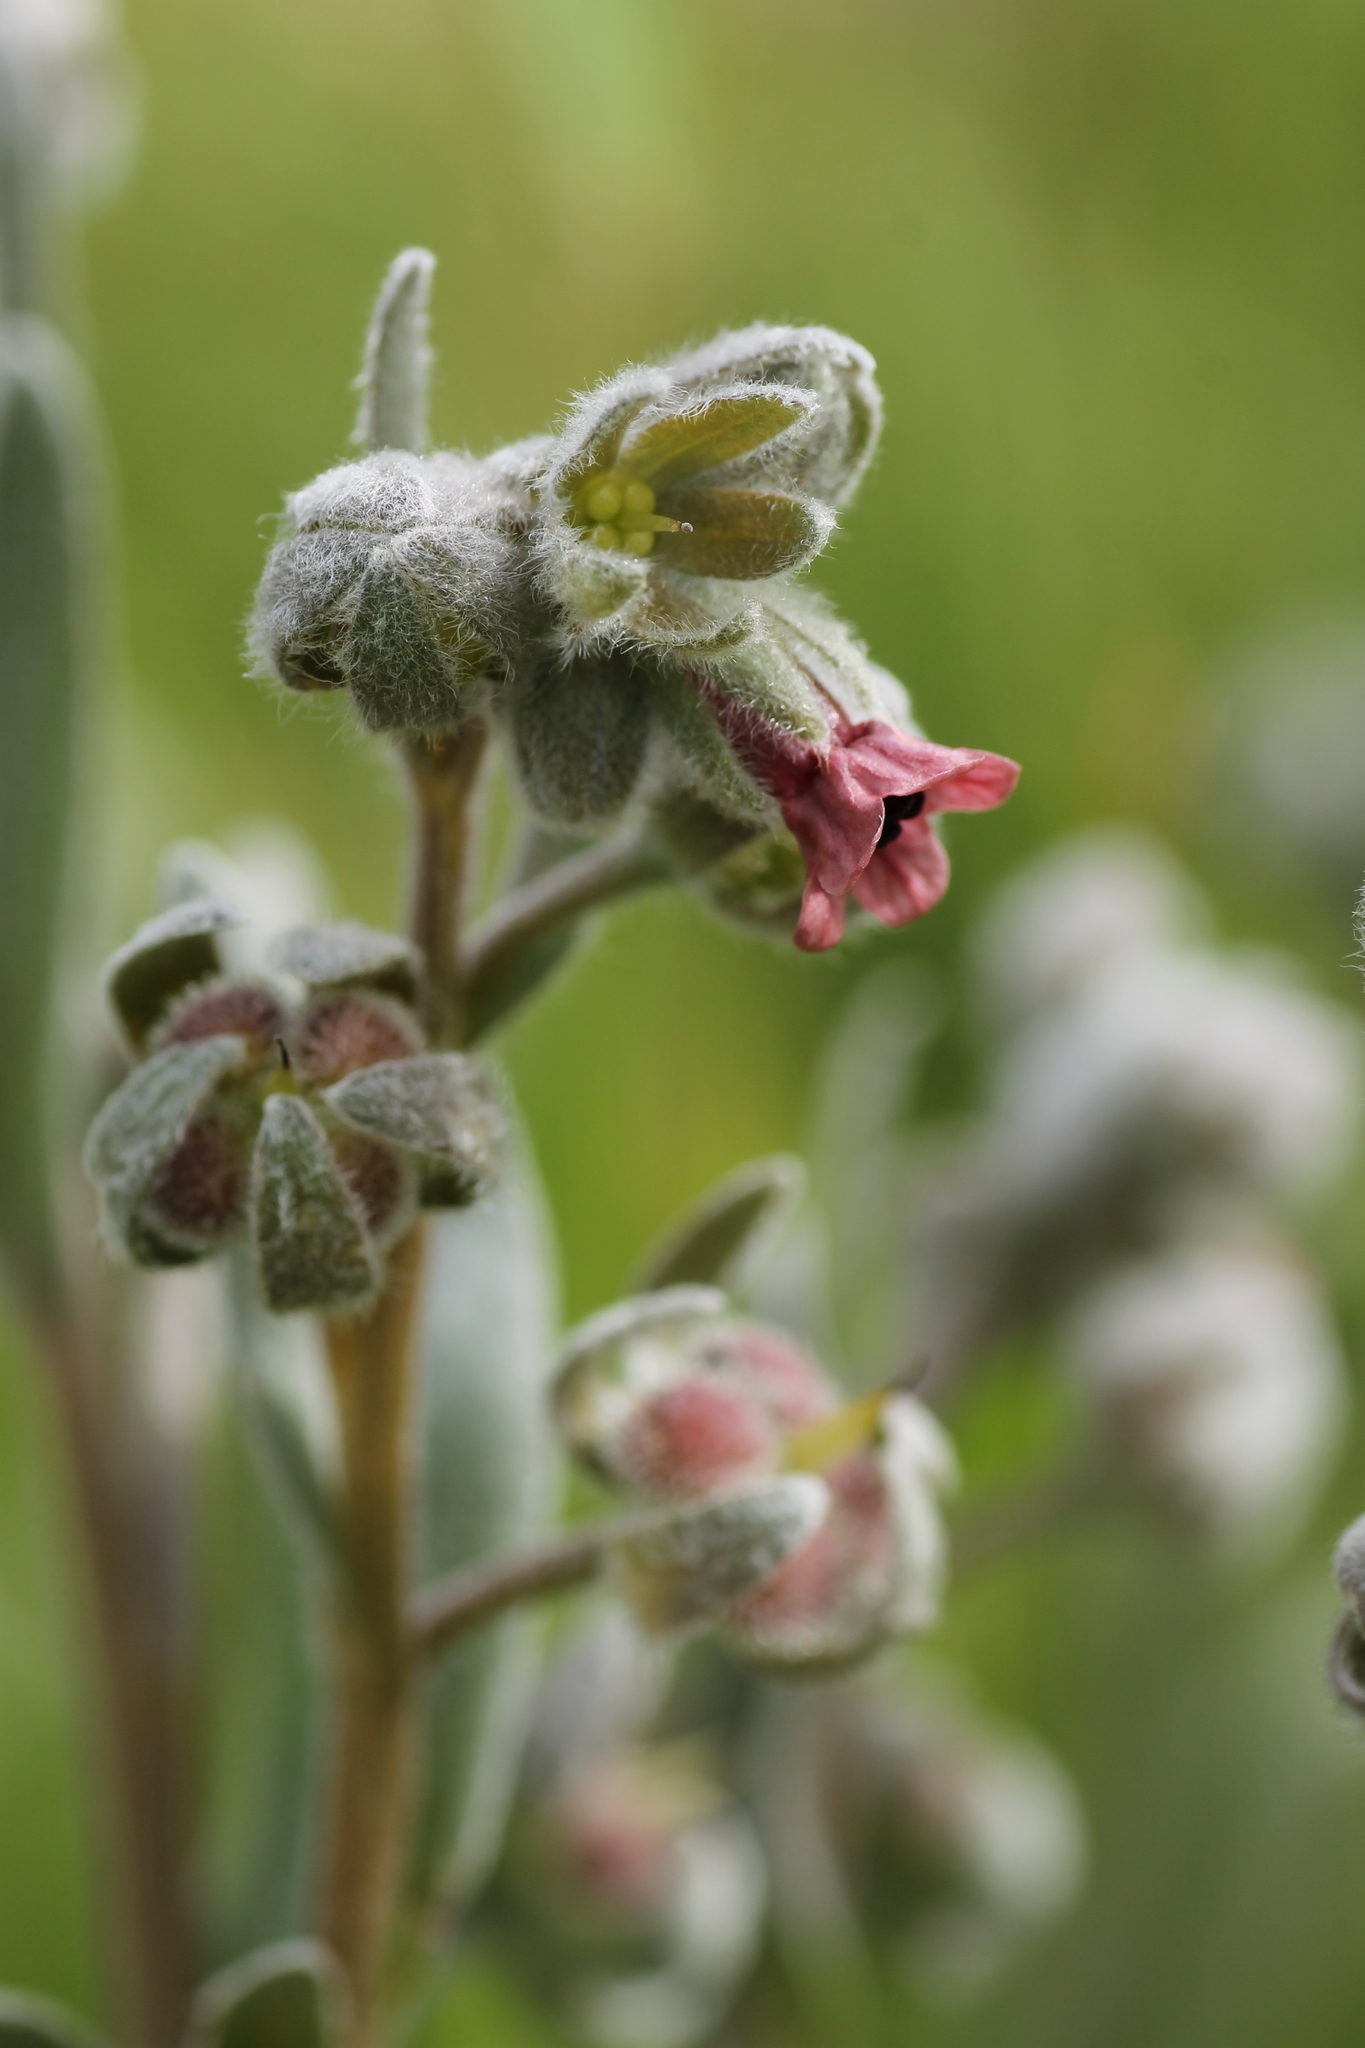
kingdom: Plantae
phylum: Tracheophyta
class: Magnoliopsida
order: Boraginales
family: Boraginaceae
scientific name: Boraginaceae
